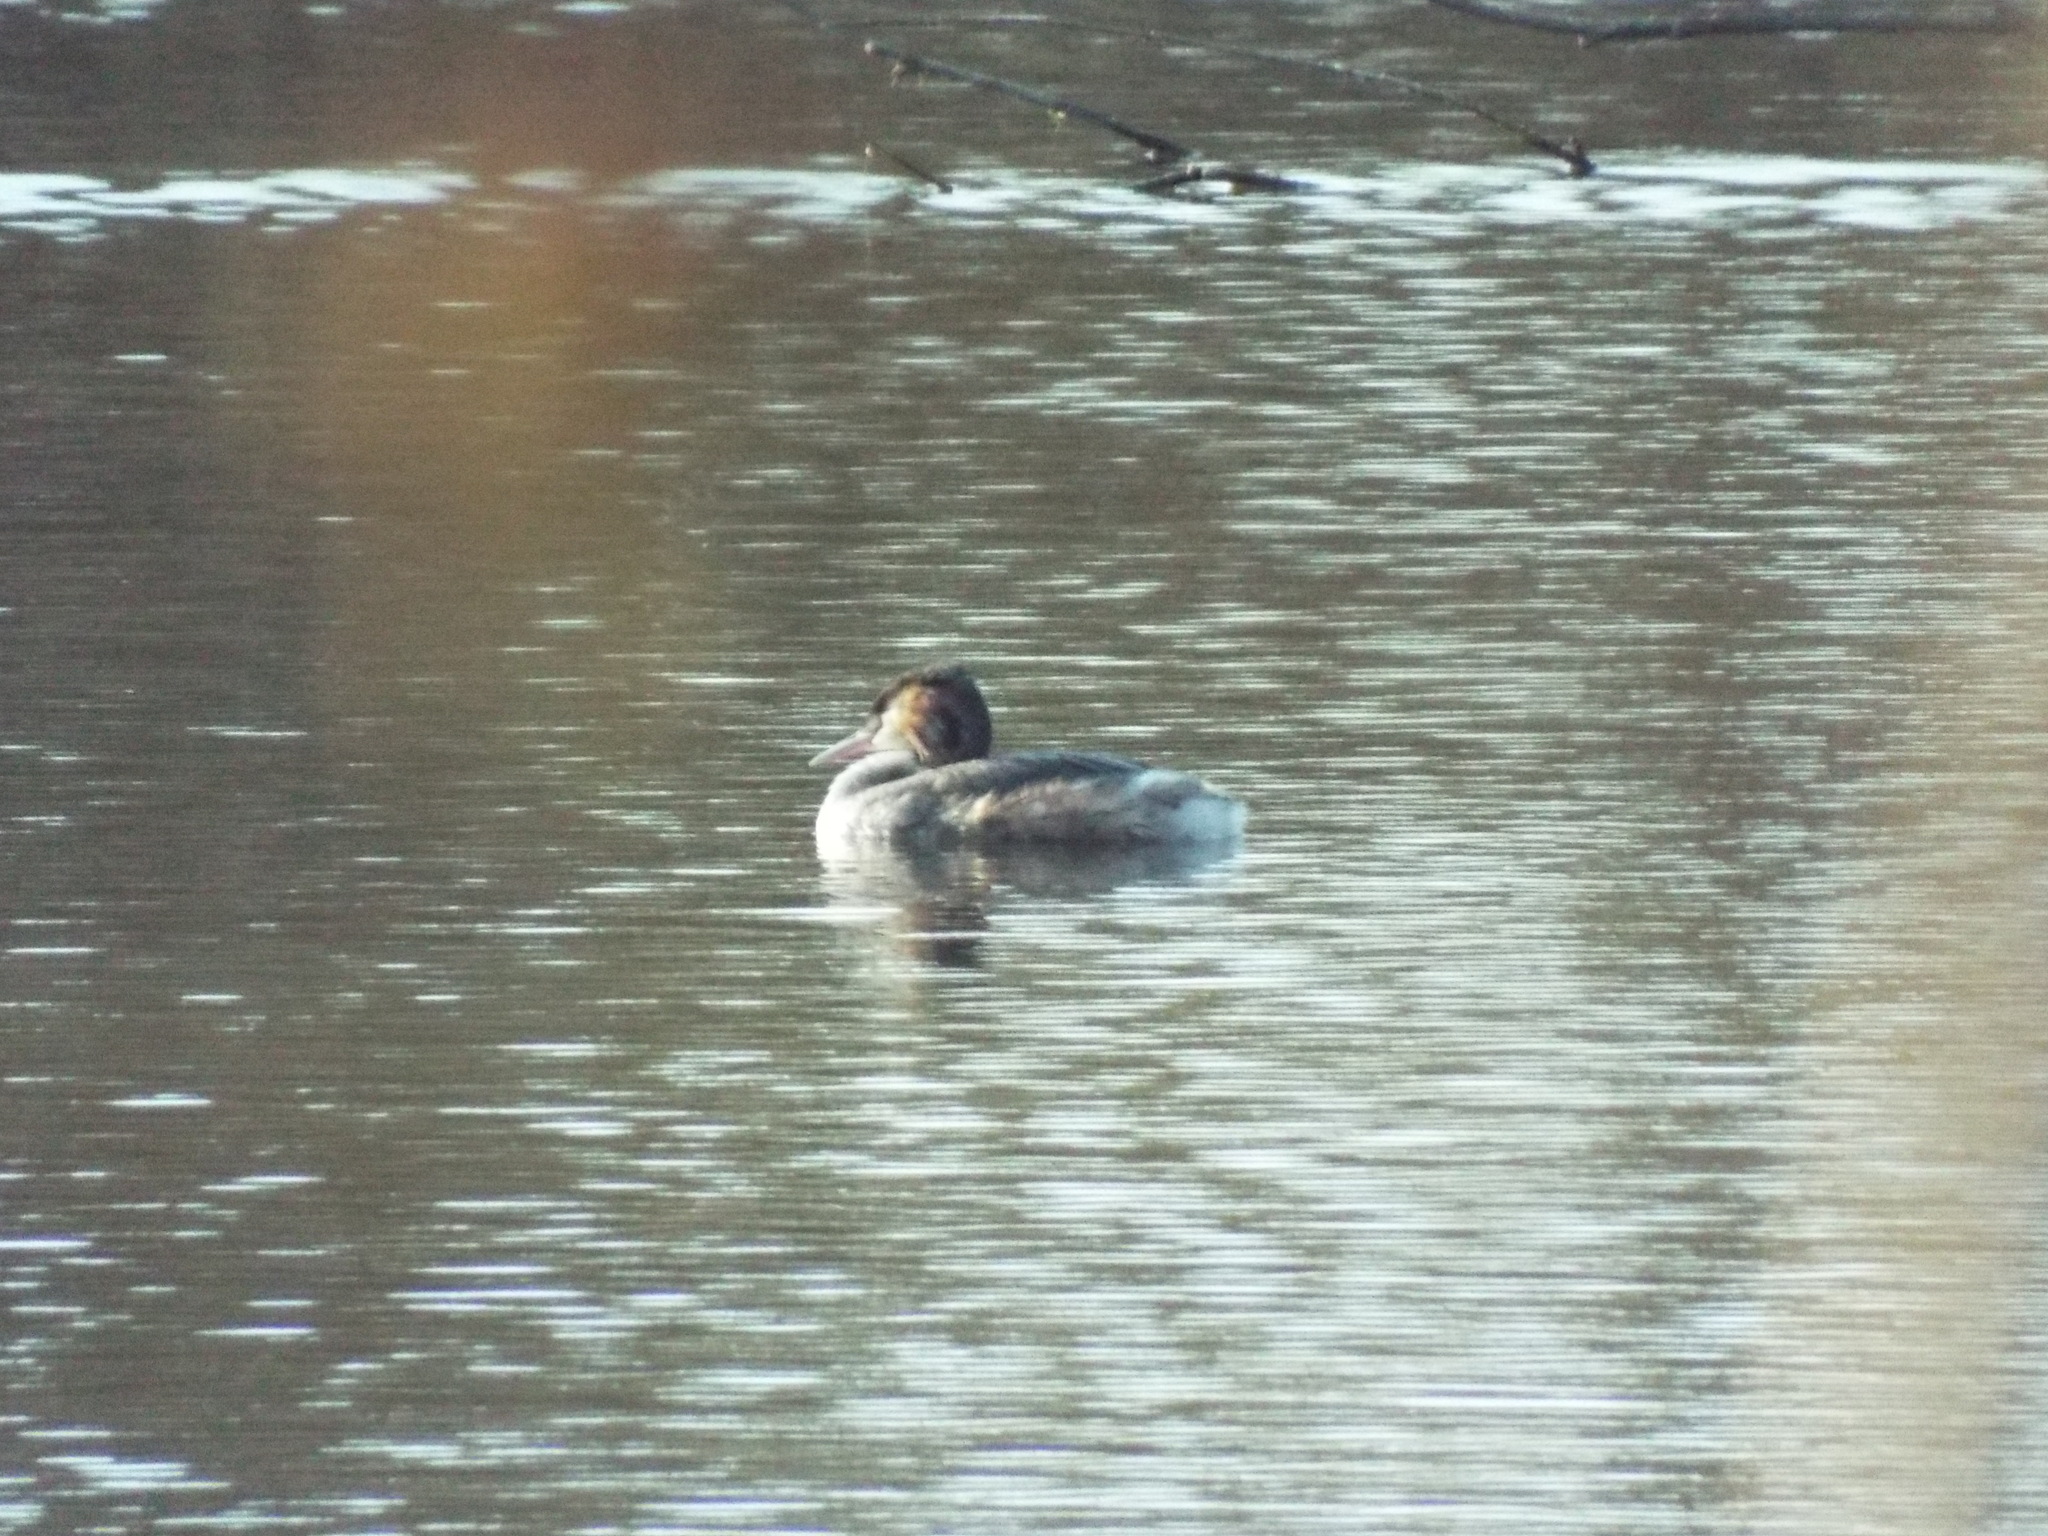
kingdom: Animalia
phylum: Chordata
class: Aves
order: Podicipediformes
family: Podicipedidae
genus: Podiceps
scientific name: Podiceps cristatus
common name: Great crested grebe
